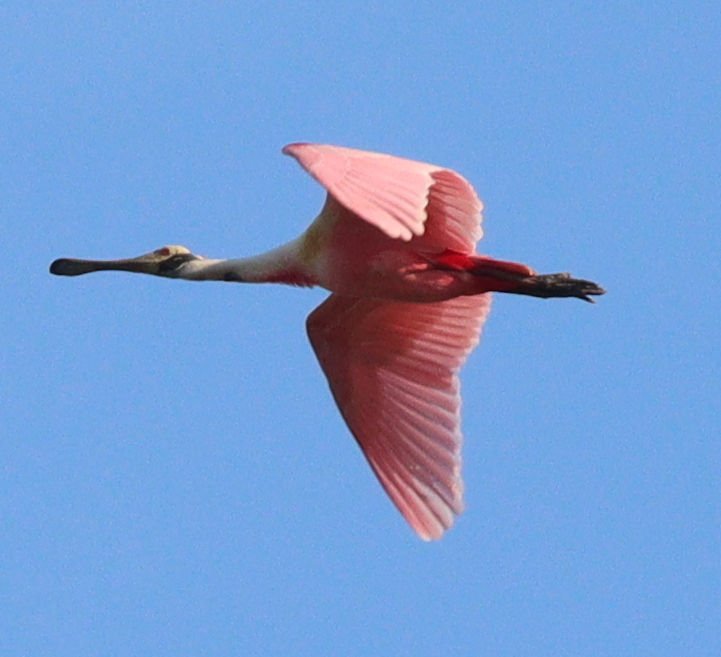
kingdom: Animalia
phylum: Chordata
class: Aves
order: Pelecaniformes
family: Threskiornithidae
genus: Platalea
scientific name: Platalea ajaja
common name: Roseate spoonbill
